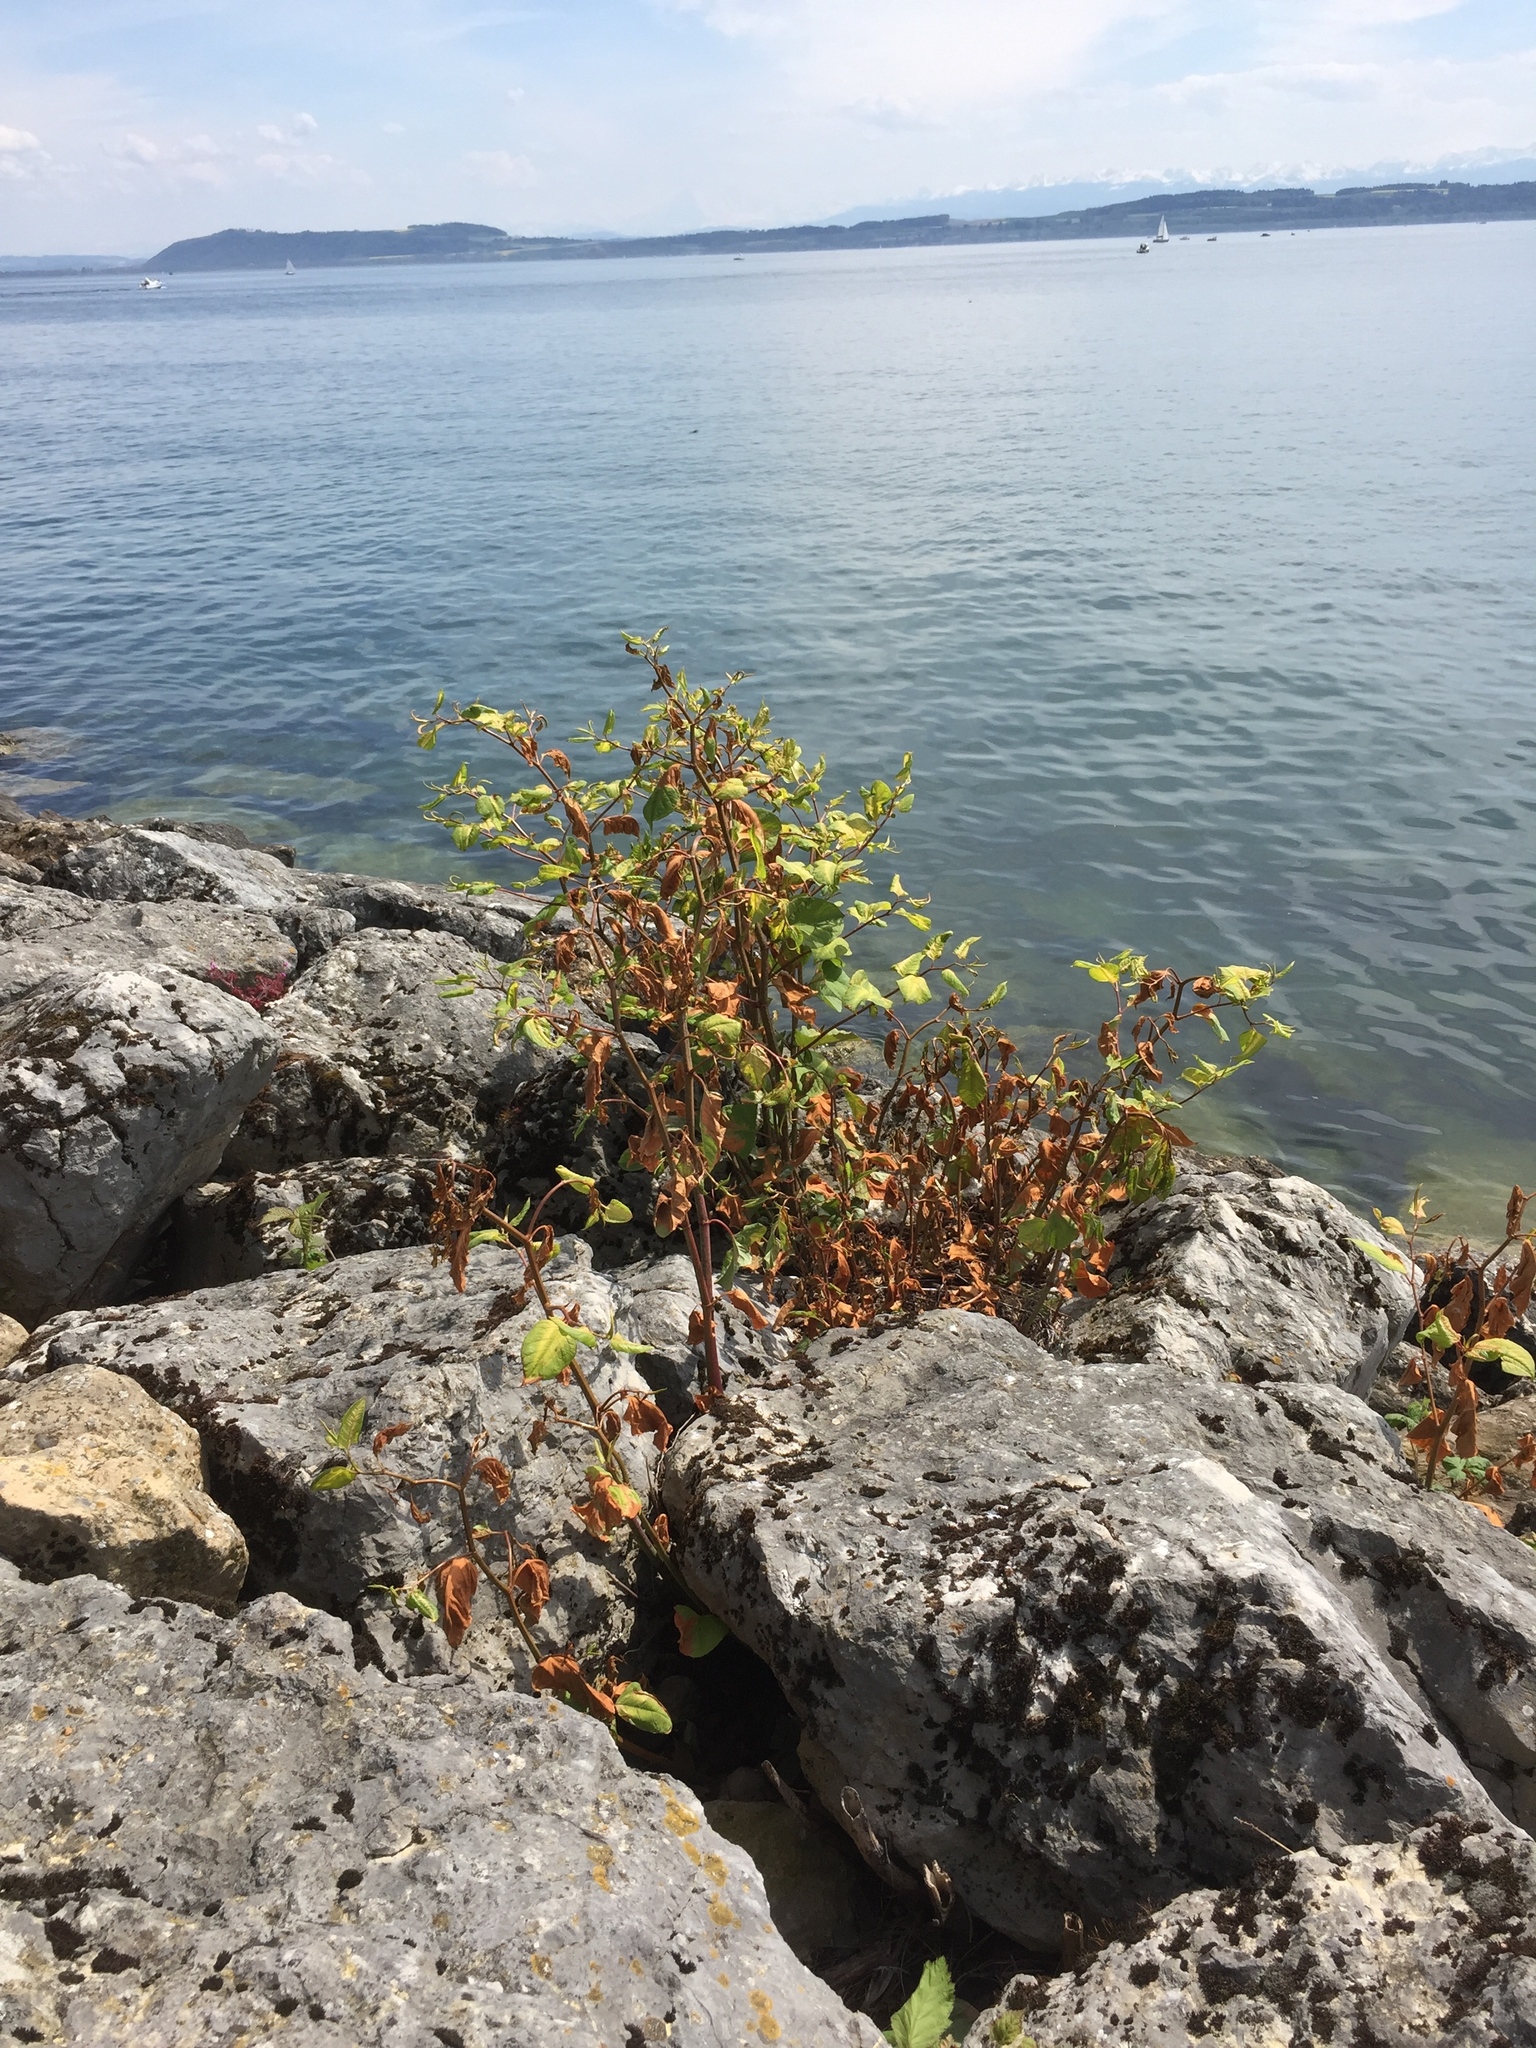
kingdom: Plantae
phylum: Tracheophyta
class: Magnoliopsida
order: Caryophyllales
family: Polygonaceae
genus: Reynoutria
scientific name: Reynoutria japonica
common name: Japanese knotweed
